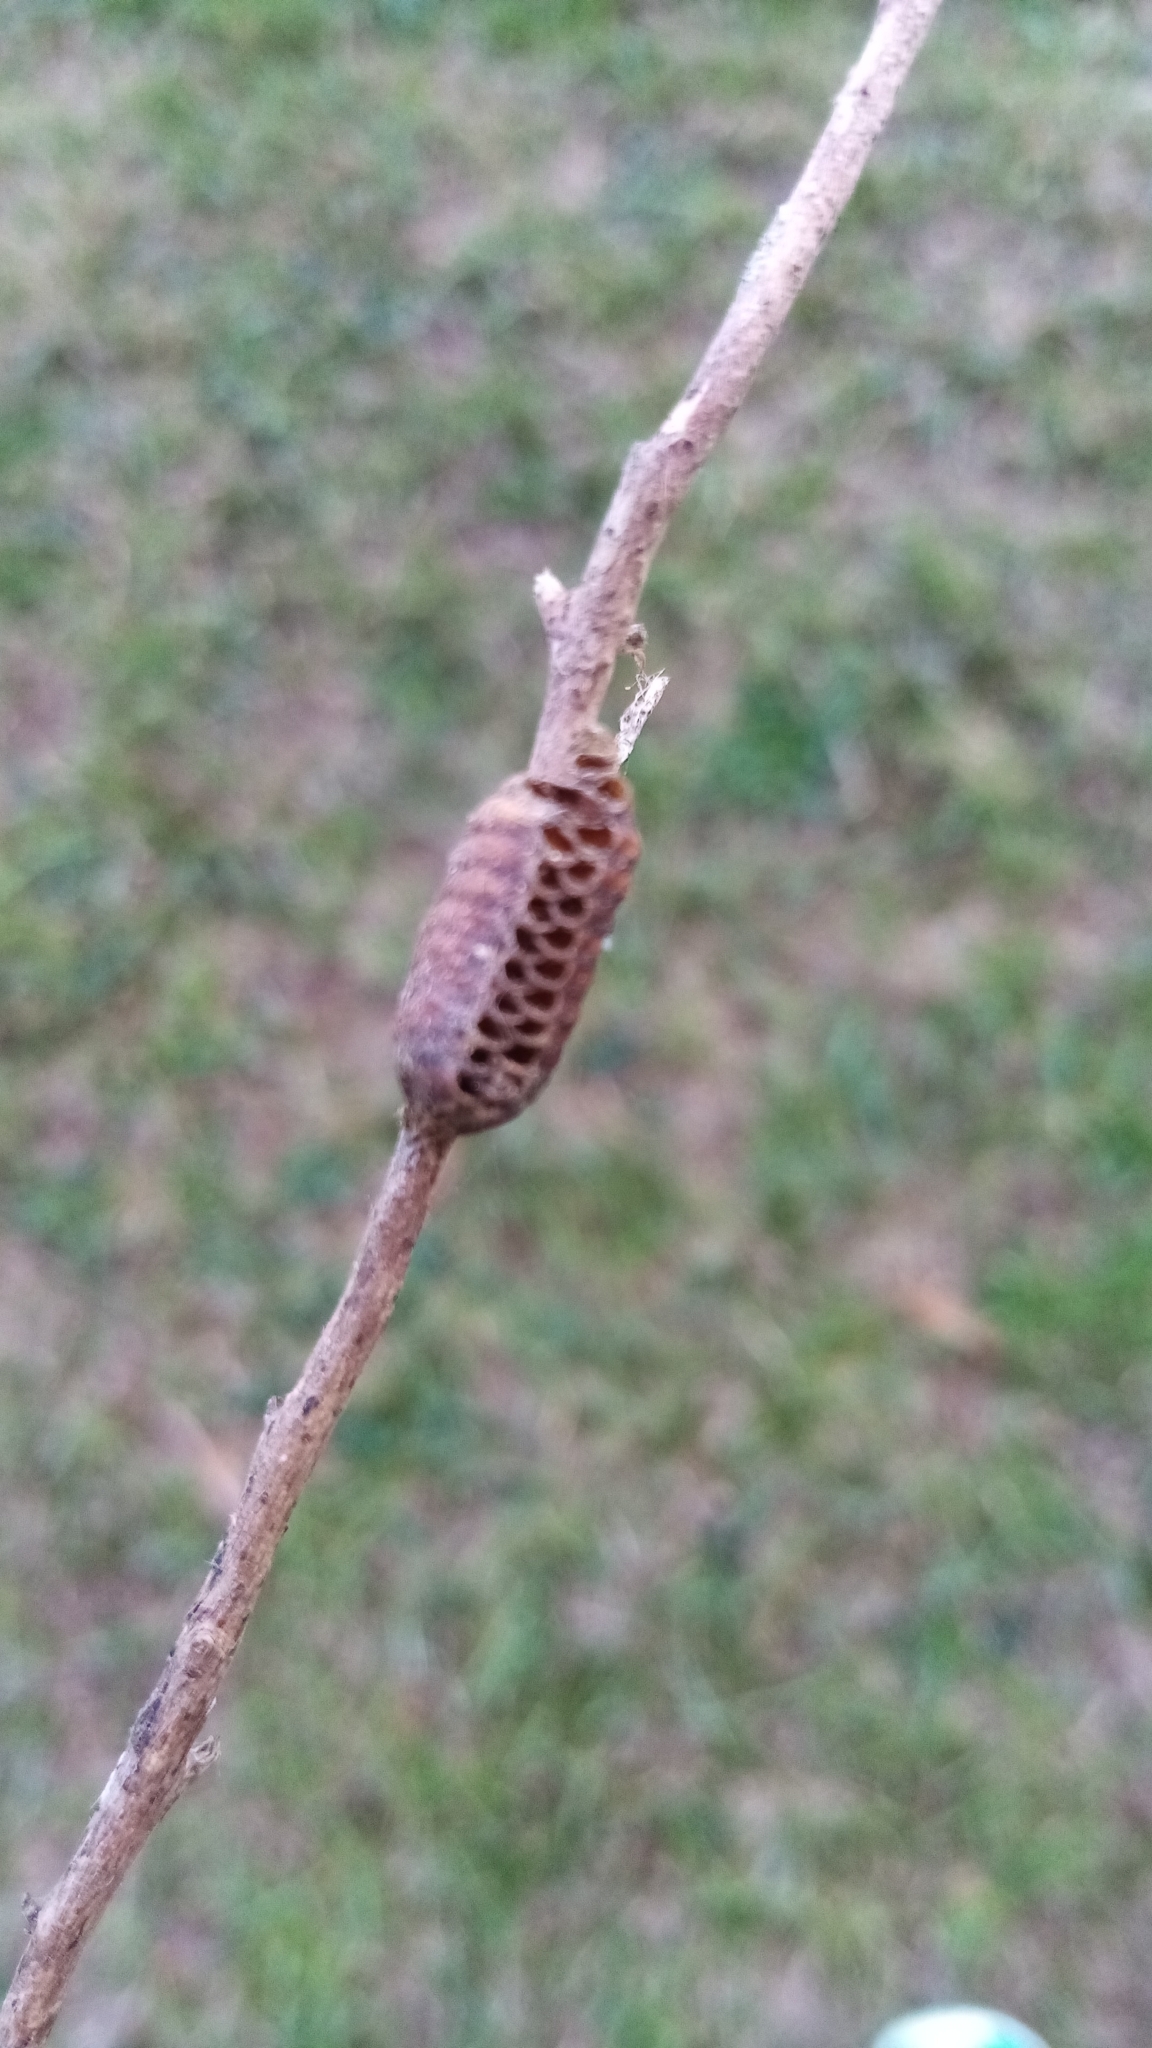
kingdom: Animalia
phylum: Arthropoda
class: Insecta
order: Mantodea
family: Mantidae
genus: Orthodera
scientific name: Orthodera novaezealandiae
